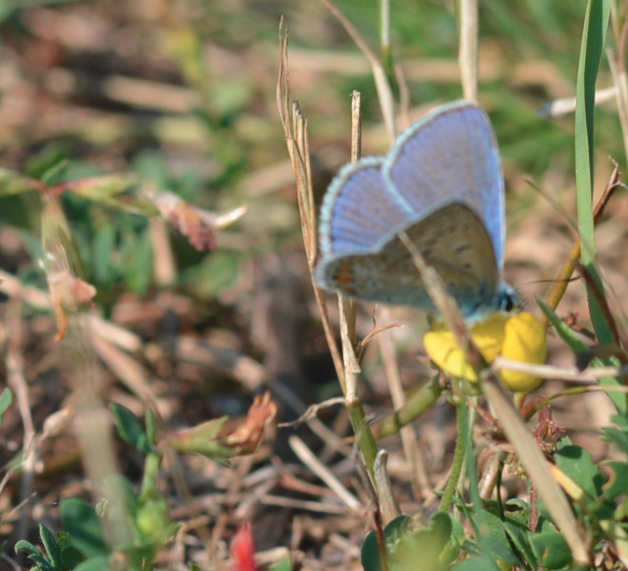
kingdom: Animalia
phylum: Arthropoda
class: Insecta
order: Lepidoptera
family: Lycaenidae
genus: Polyommatus
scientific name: Polyommatus icarus
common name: Common blue
